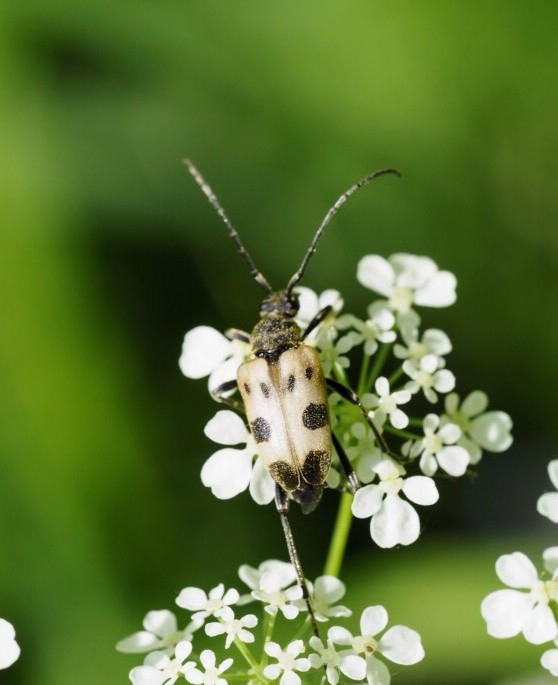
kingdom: Animalia
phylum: Arthropoda
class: Insecta
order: Coleoptera
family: Cerambycidae
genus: Pachytodes
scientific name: Pachytodes cerambyciformis
